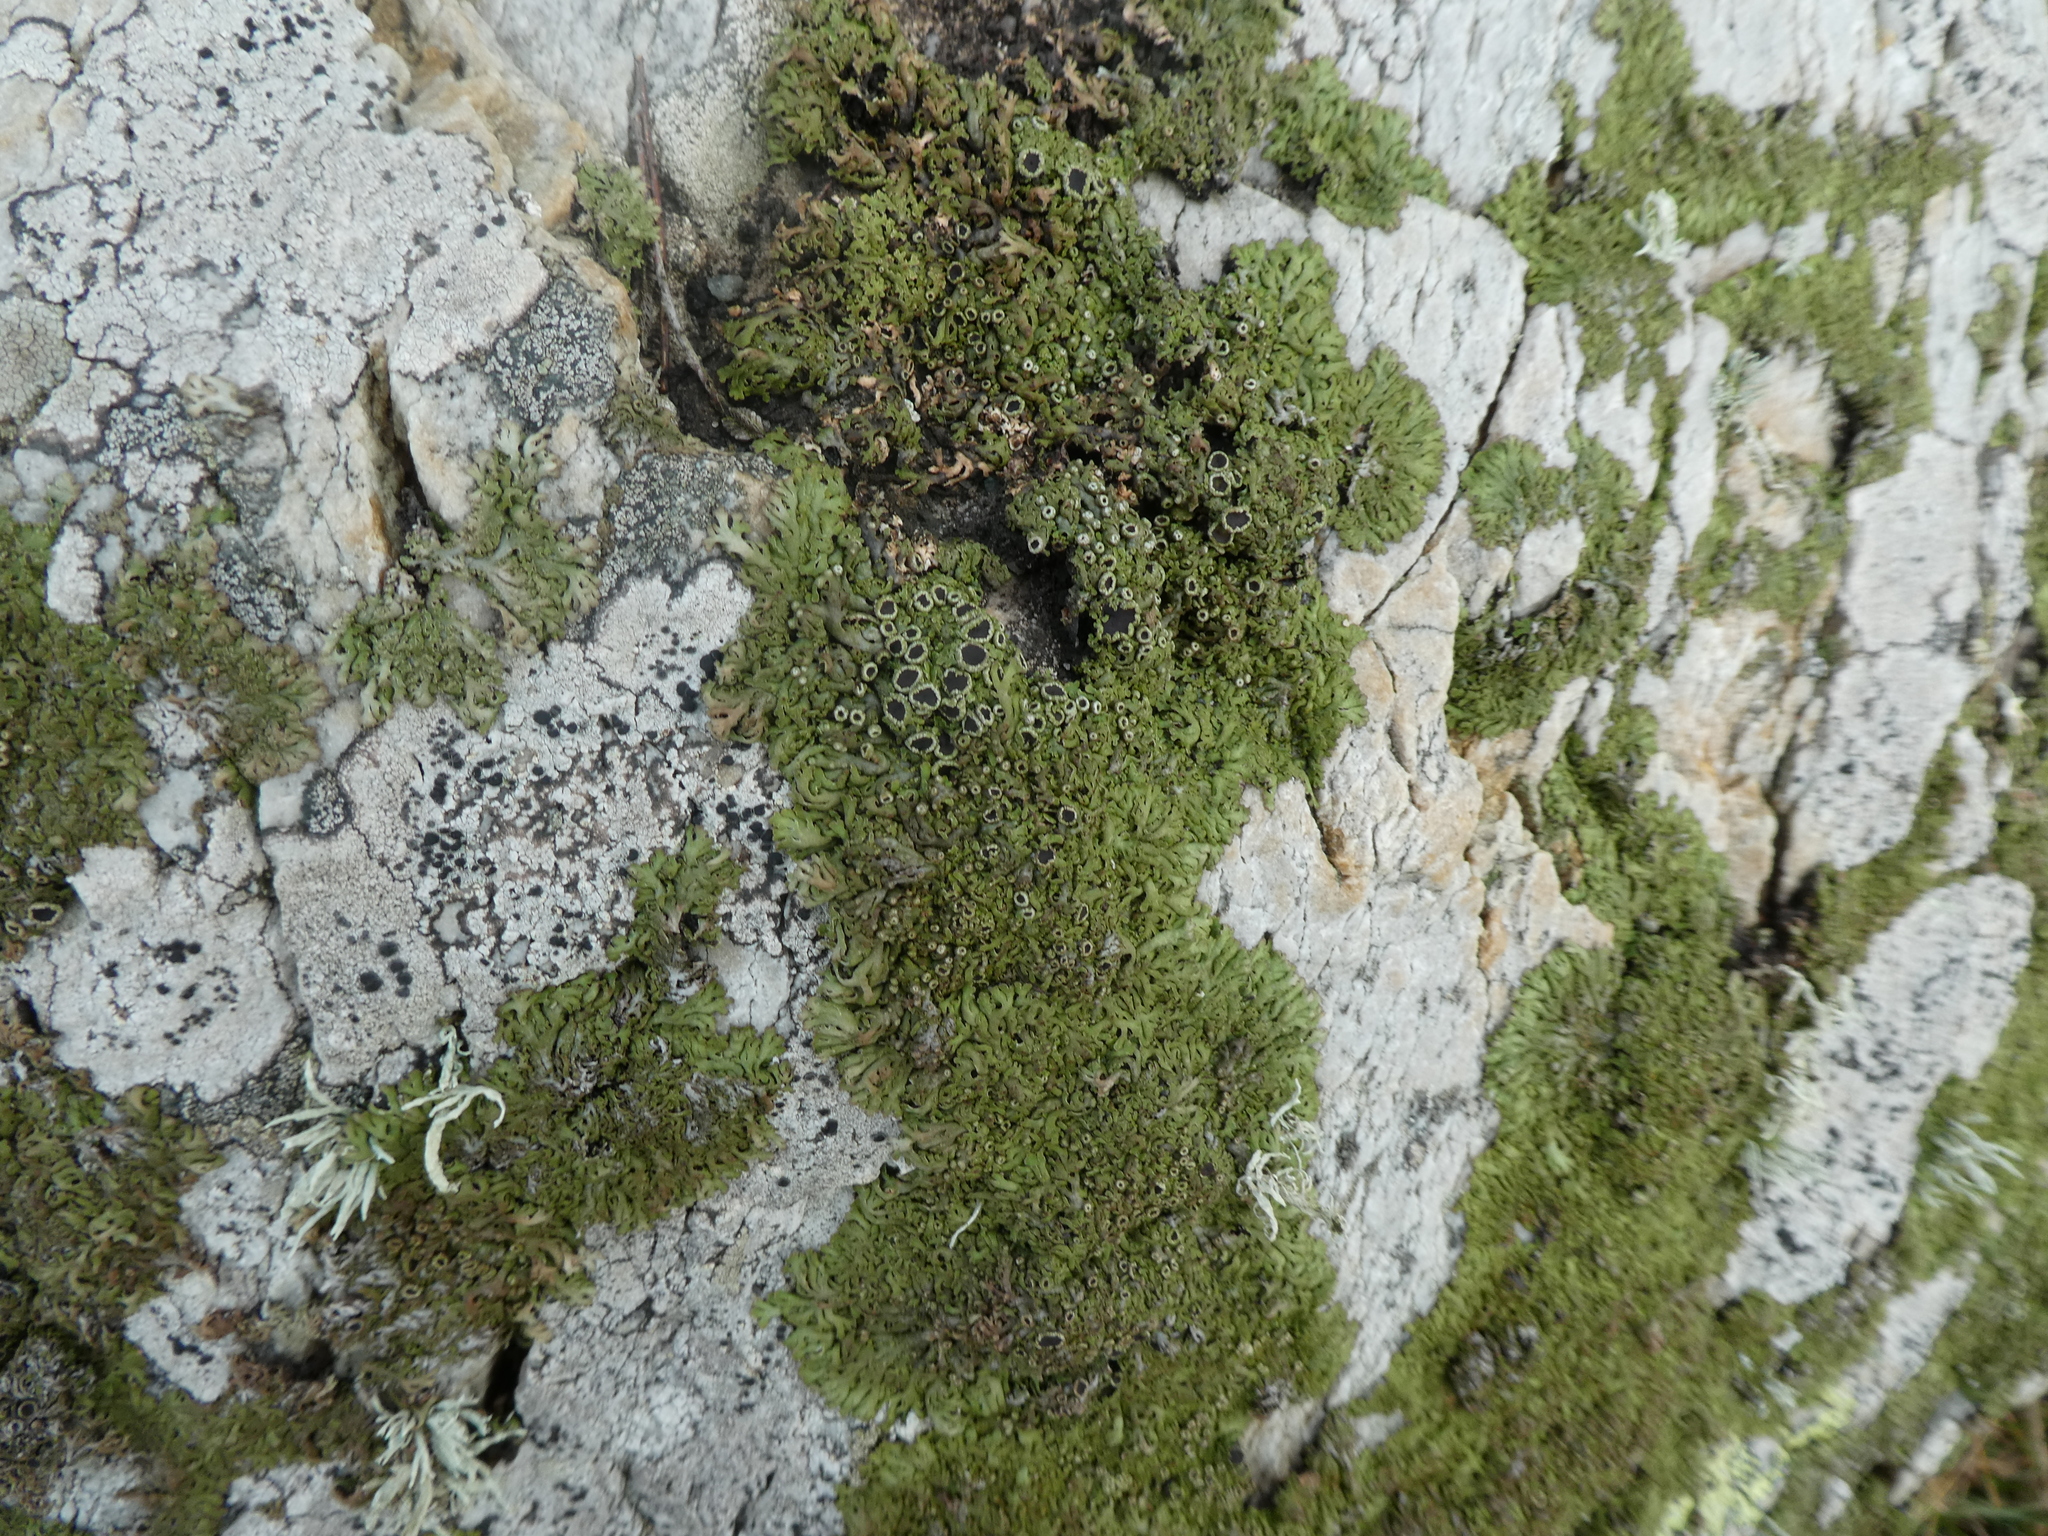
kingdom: Fungi
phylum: Ascomycota
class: Lecanoromycetes
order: Caliciales
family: Physciaceae
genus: Kurokawia
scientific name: Kurokawia runcinata
